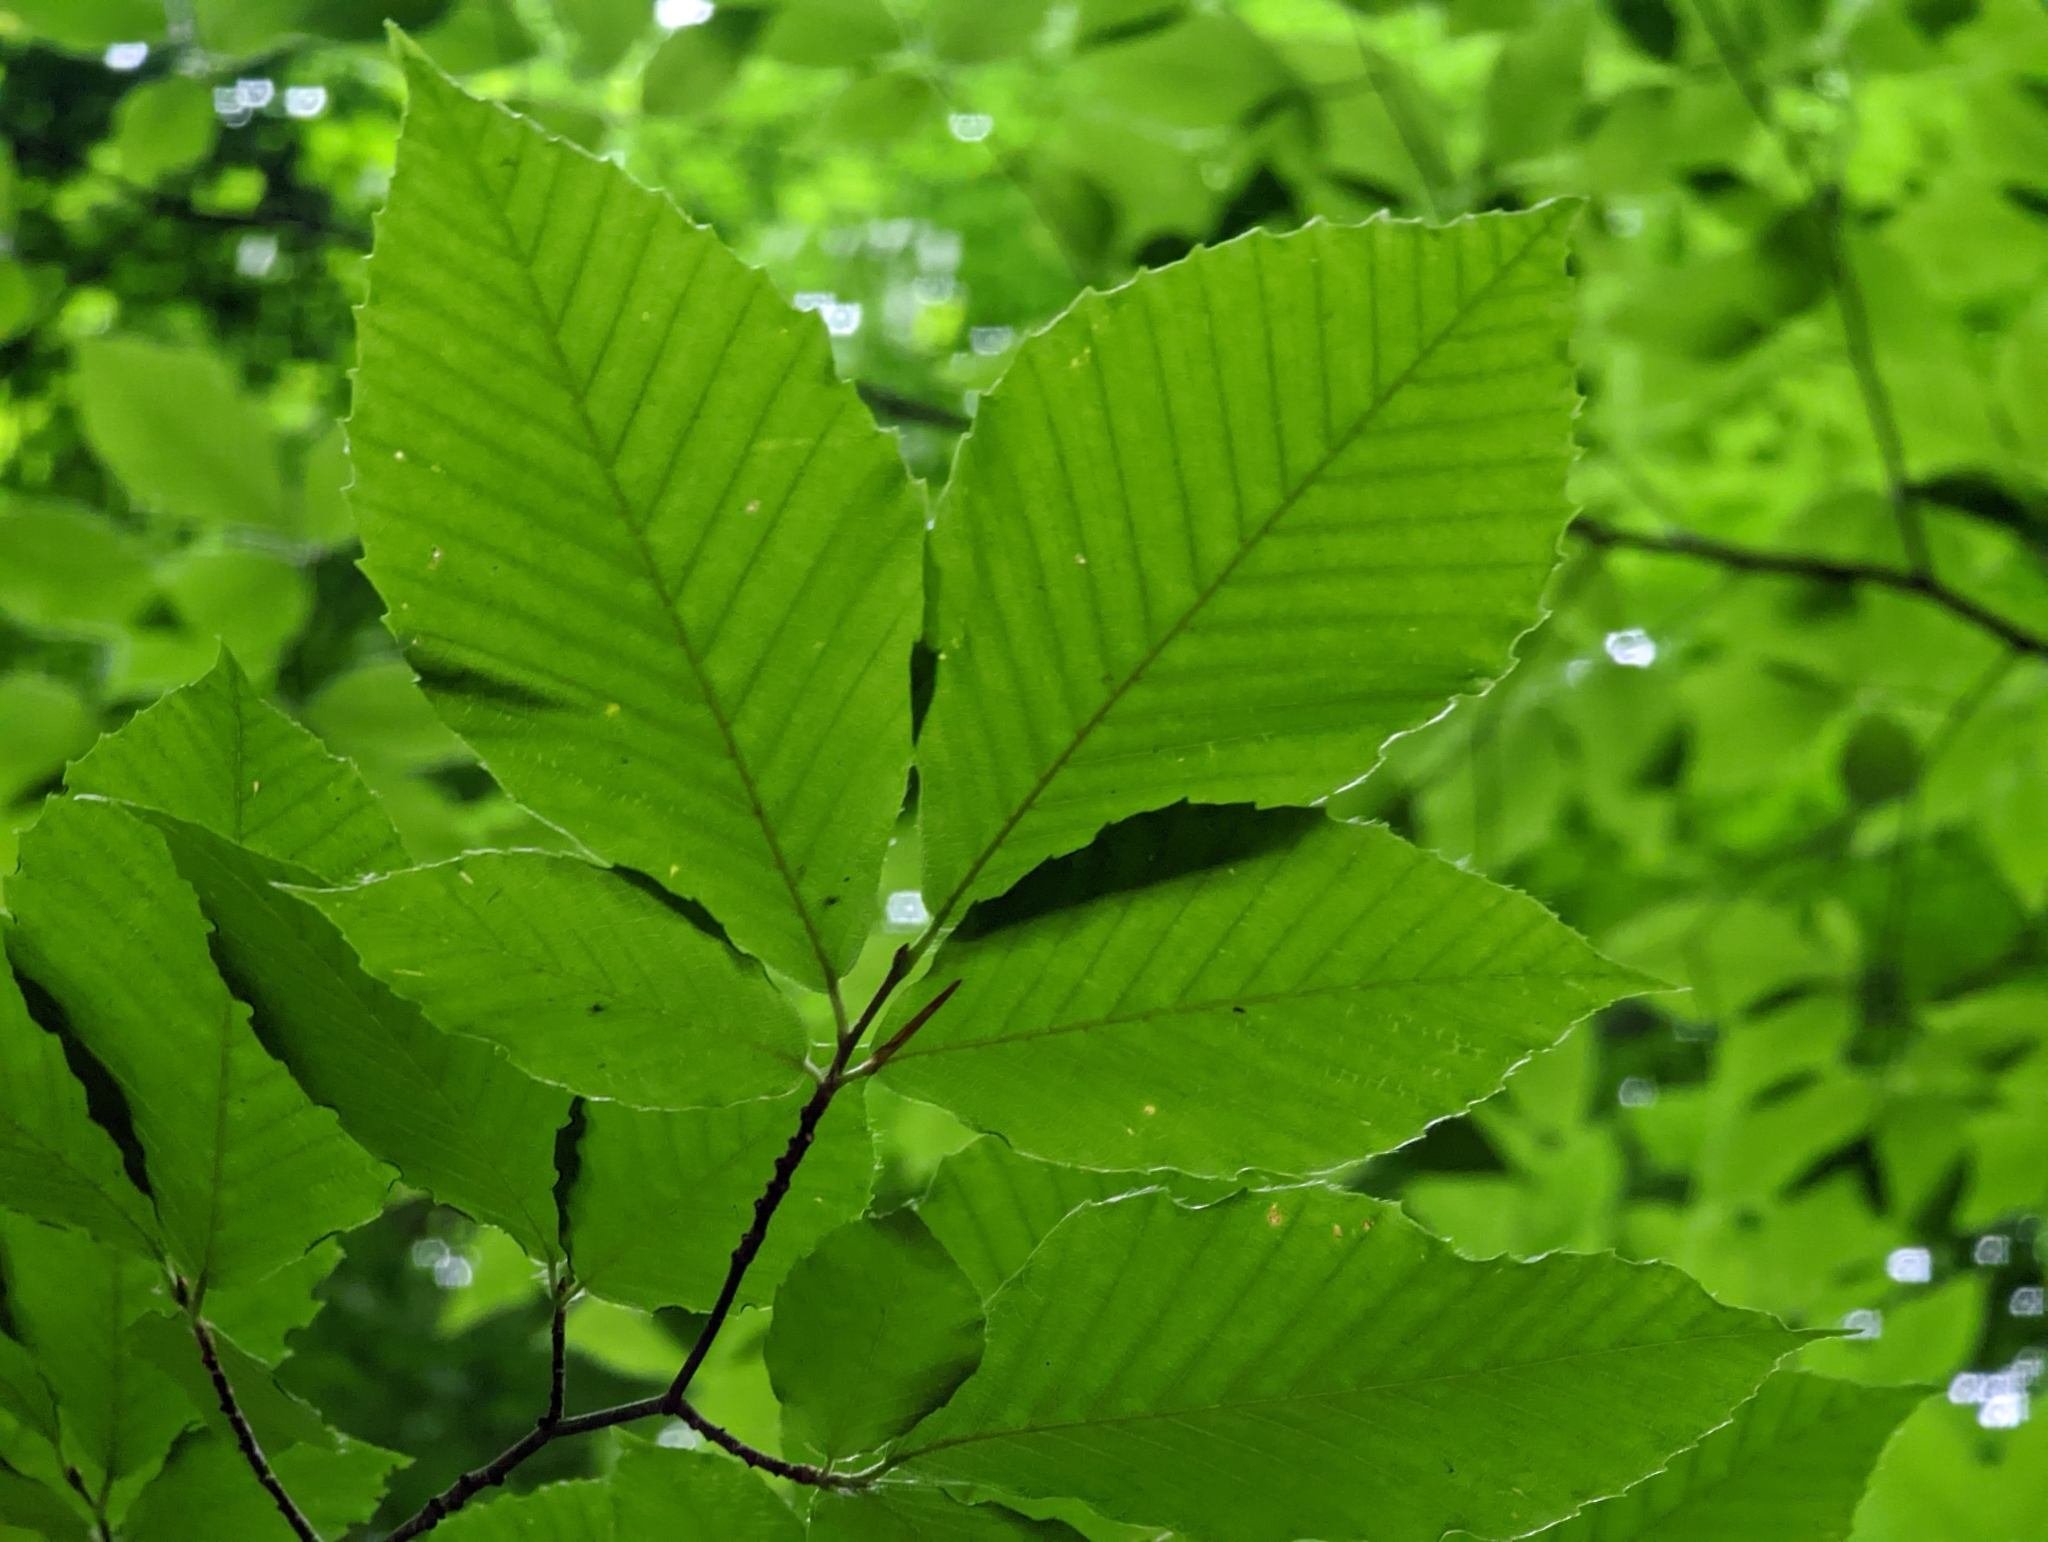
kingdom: Plantae
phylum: Tracheophyta
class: Magnoliopsida
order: Fagales
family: Fagaceae
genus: Fagus
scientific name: Fagus grandifolia
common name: American beech
